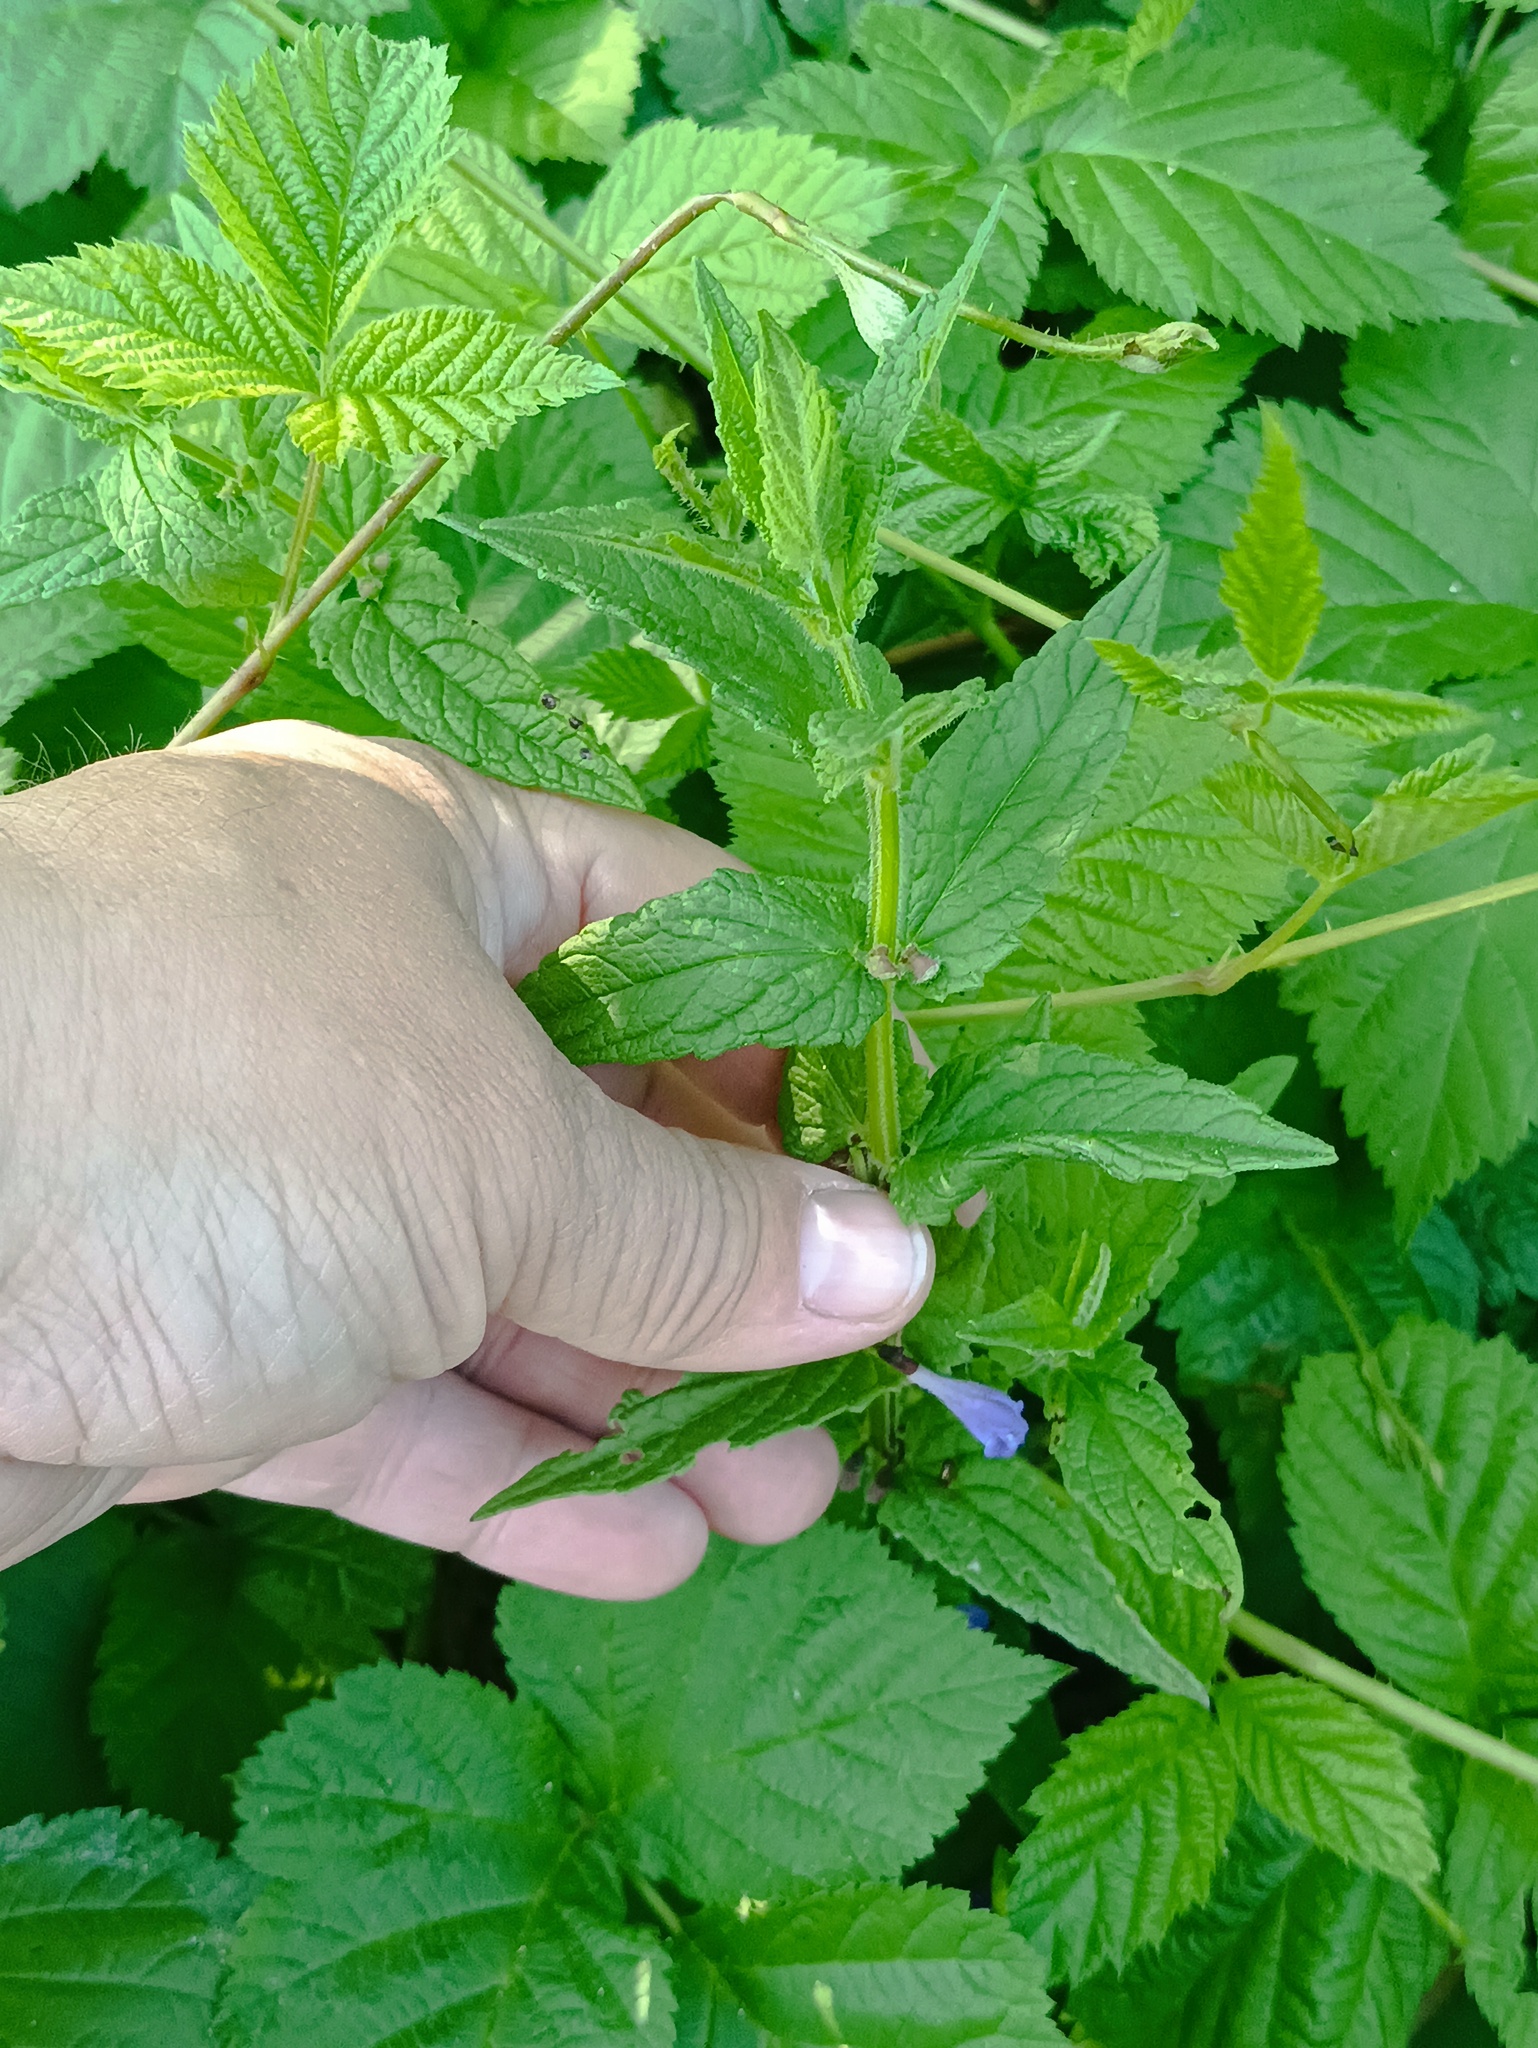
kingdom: Plantae
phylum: Tracheophyta
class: Magnoliopsida
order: Lamiales
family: Lamiaceae
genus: Scutellaria
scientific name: Scutellaria galericulata
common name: Skullcap
